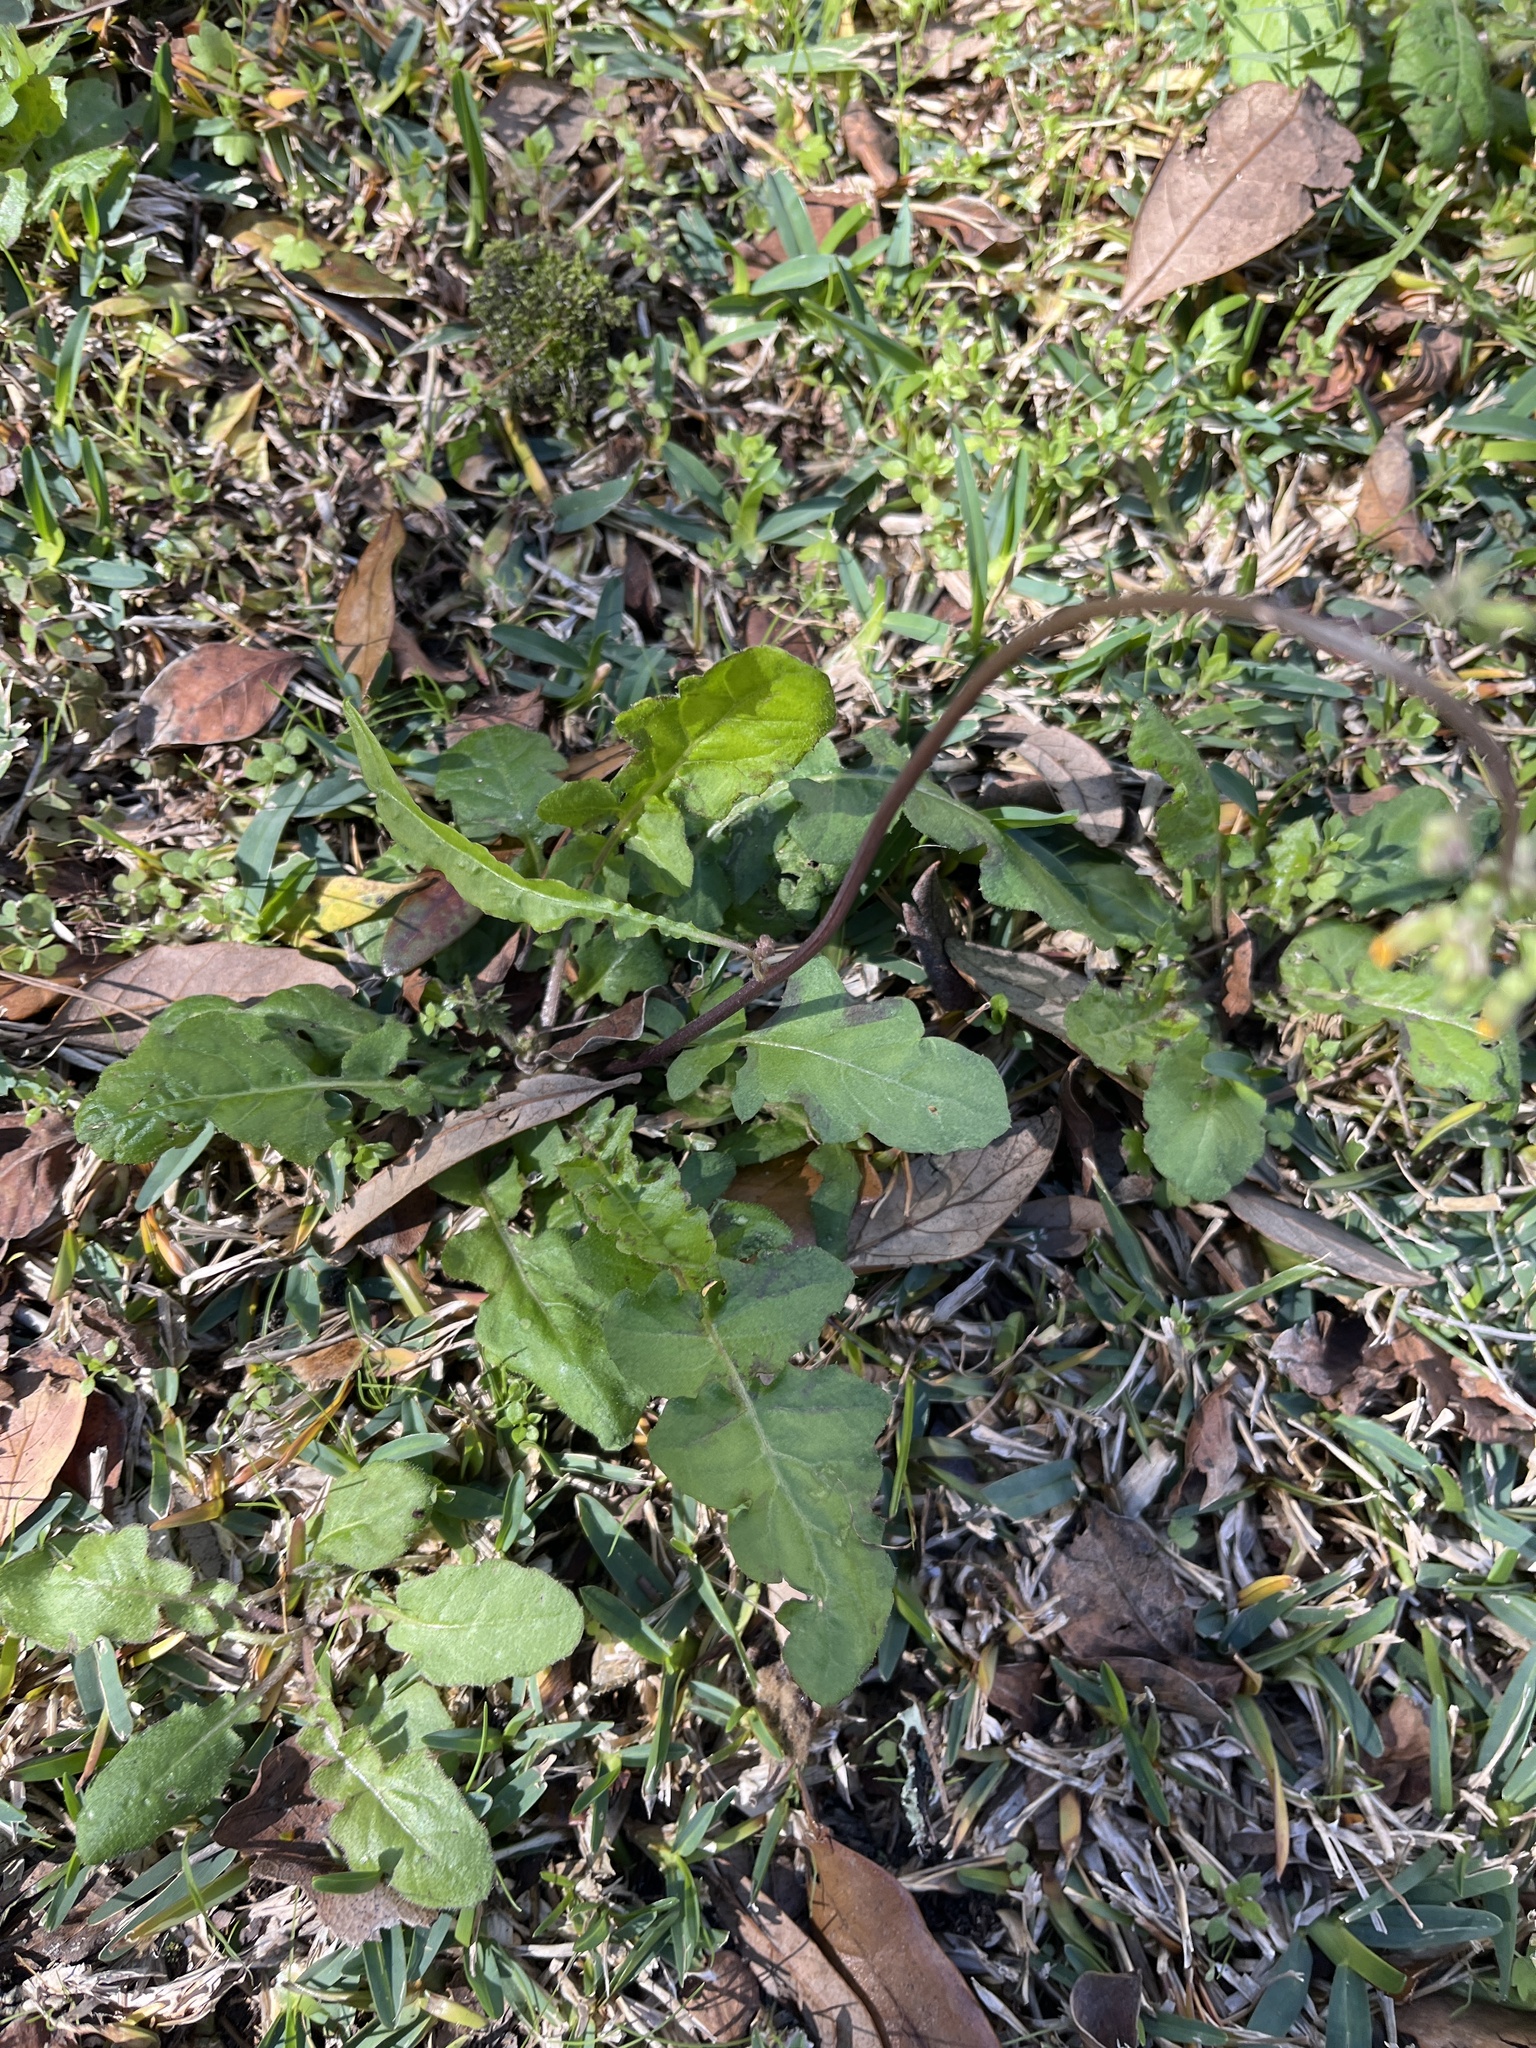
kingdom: Plantae
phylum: Tracheophyta
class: Magnoliopsida
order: Asterales
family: Asteraceae
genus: Youngia
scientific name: Youngia japonica
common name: Oriental false hawksbeard
